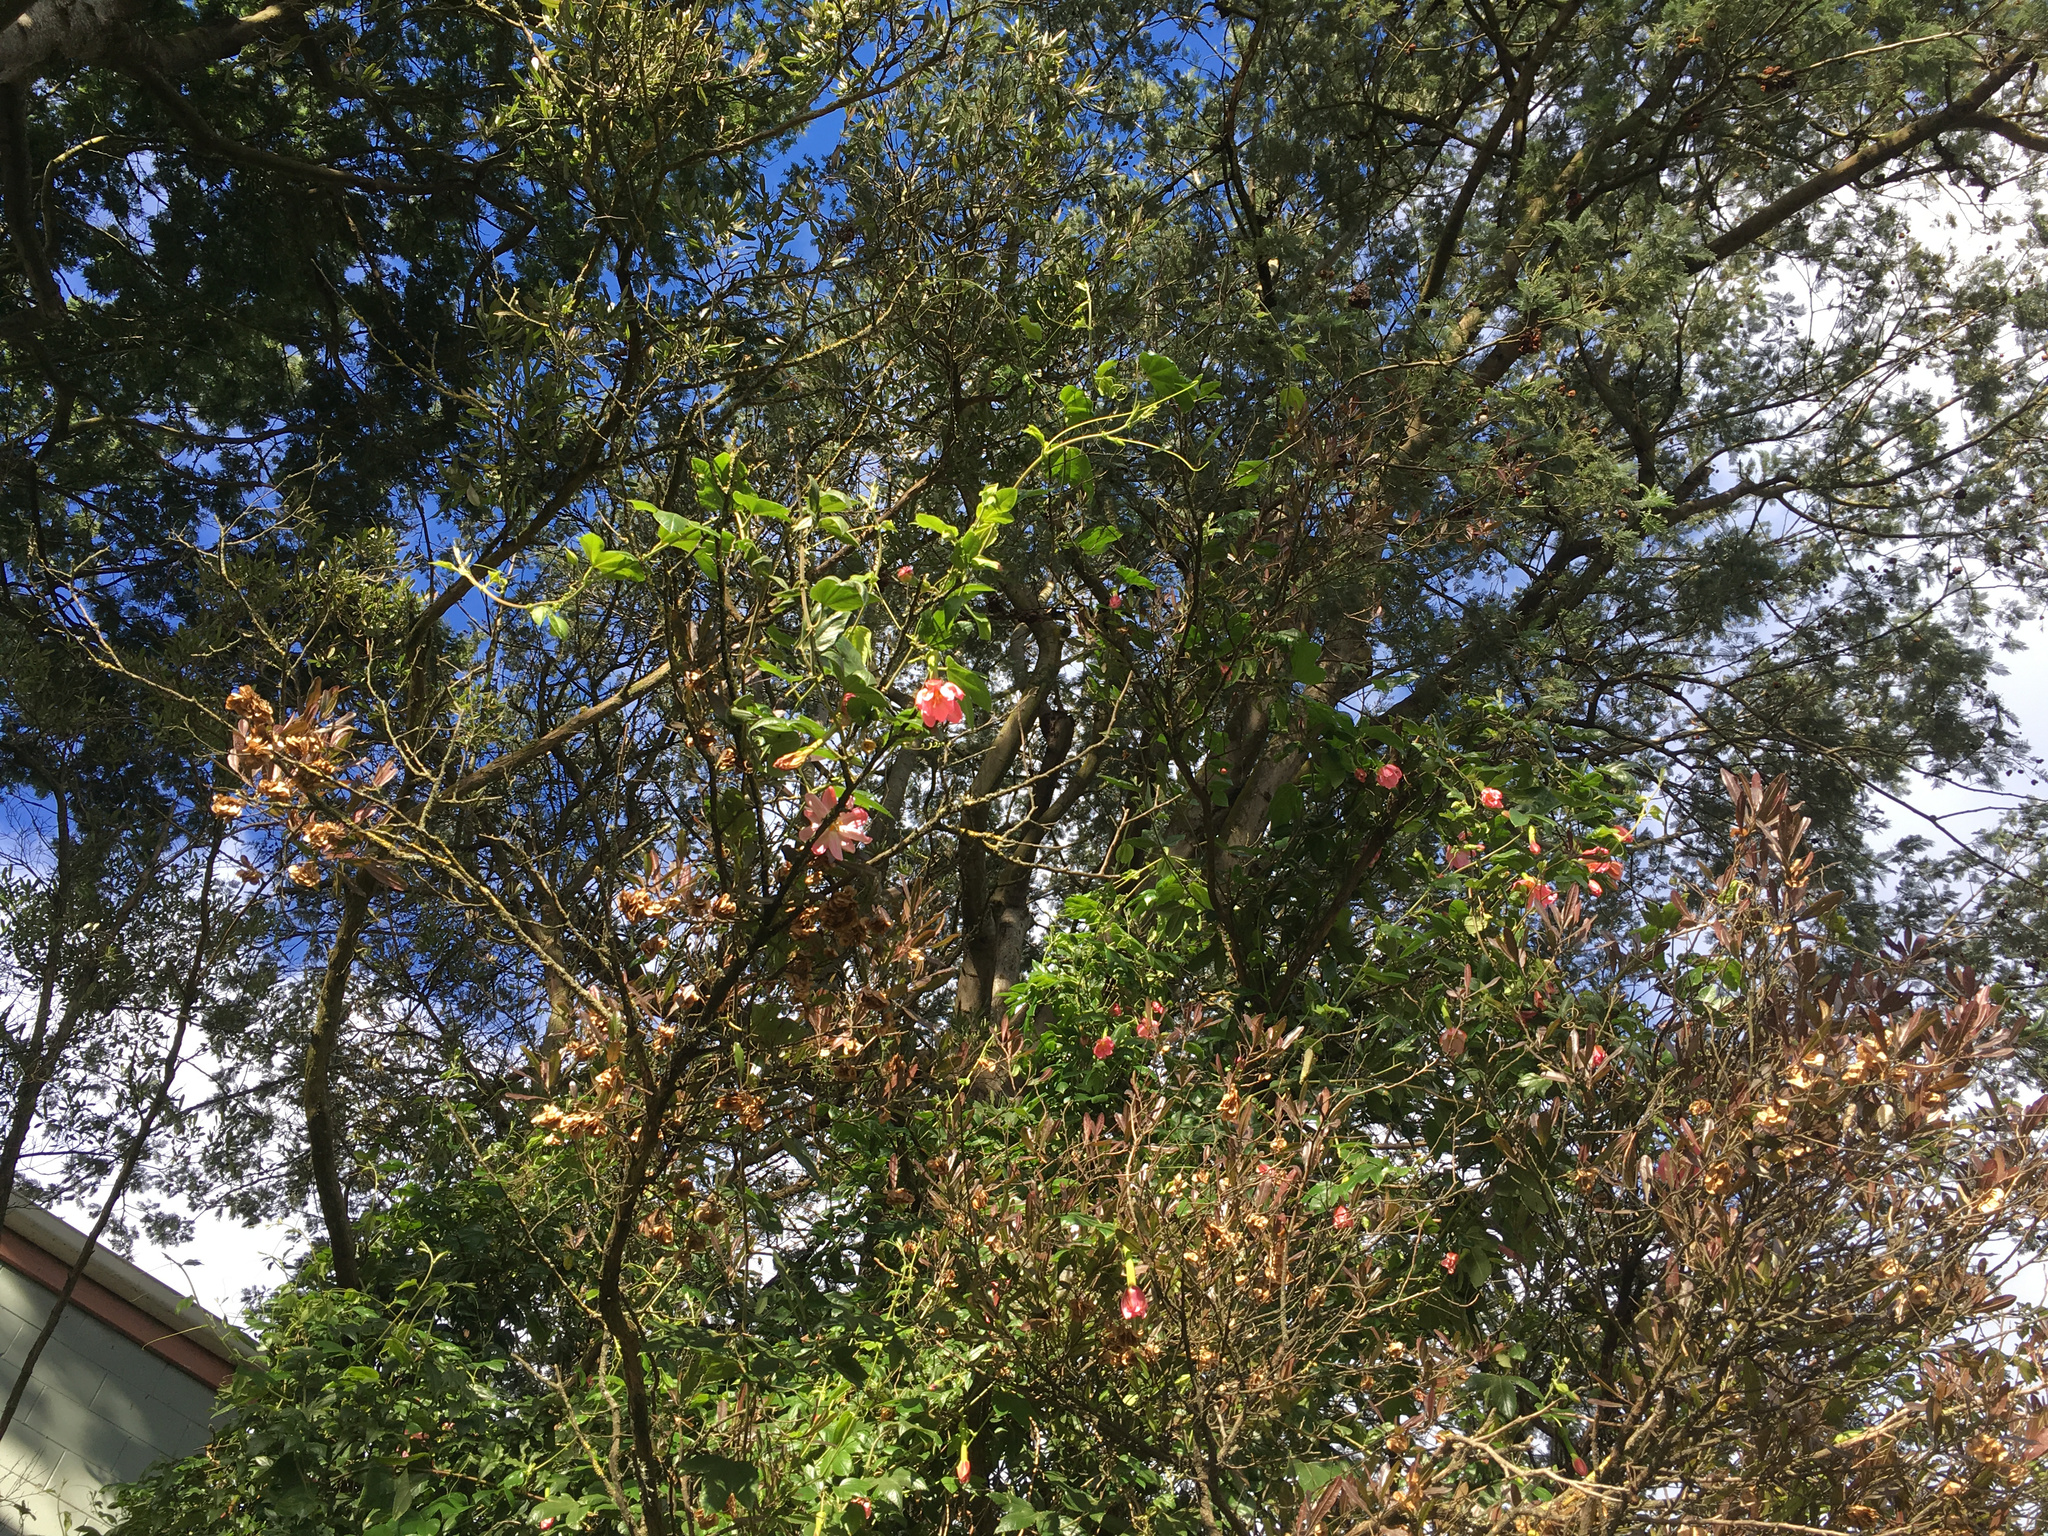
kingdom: Plantae
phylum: Tracheophyta
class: Magnoliopsida
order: Malpighiales
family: Passifloraceae
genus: Passiflora
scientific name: Passiflora tripartita
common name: Banana poka
